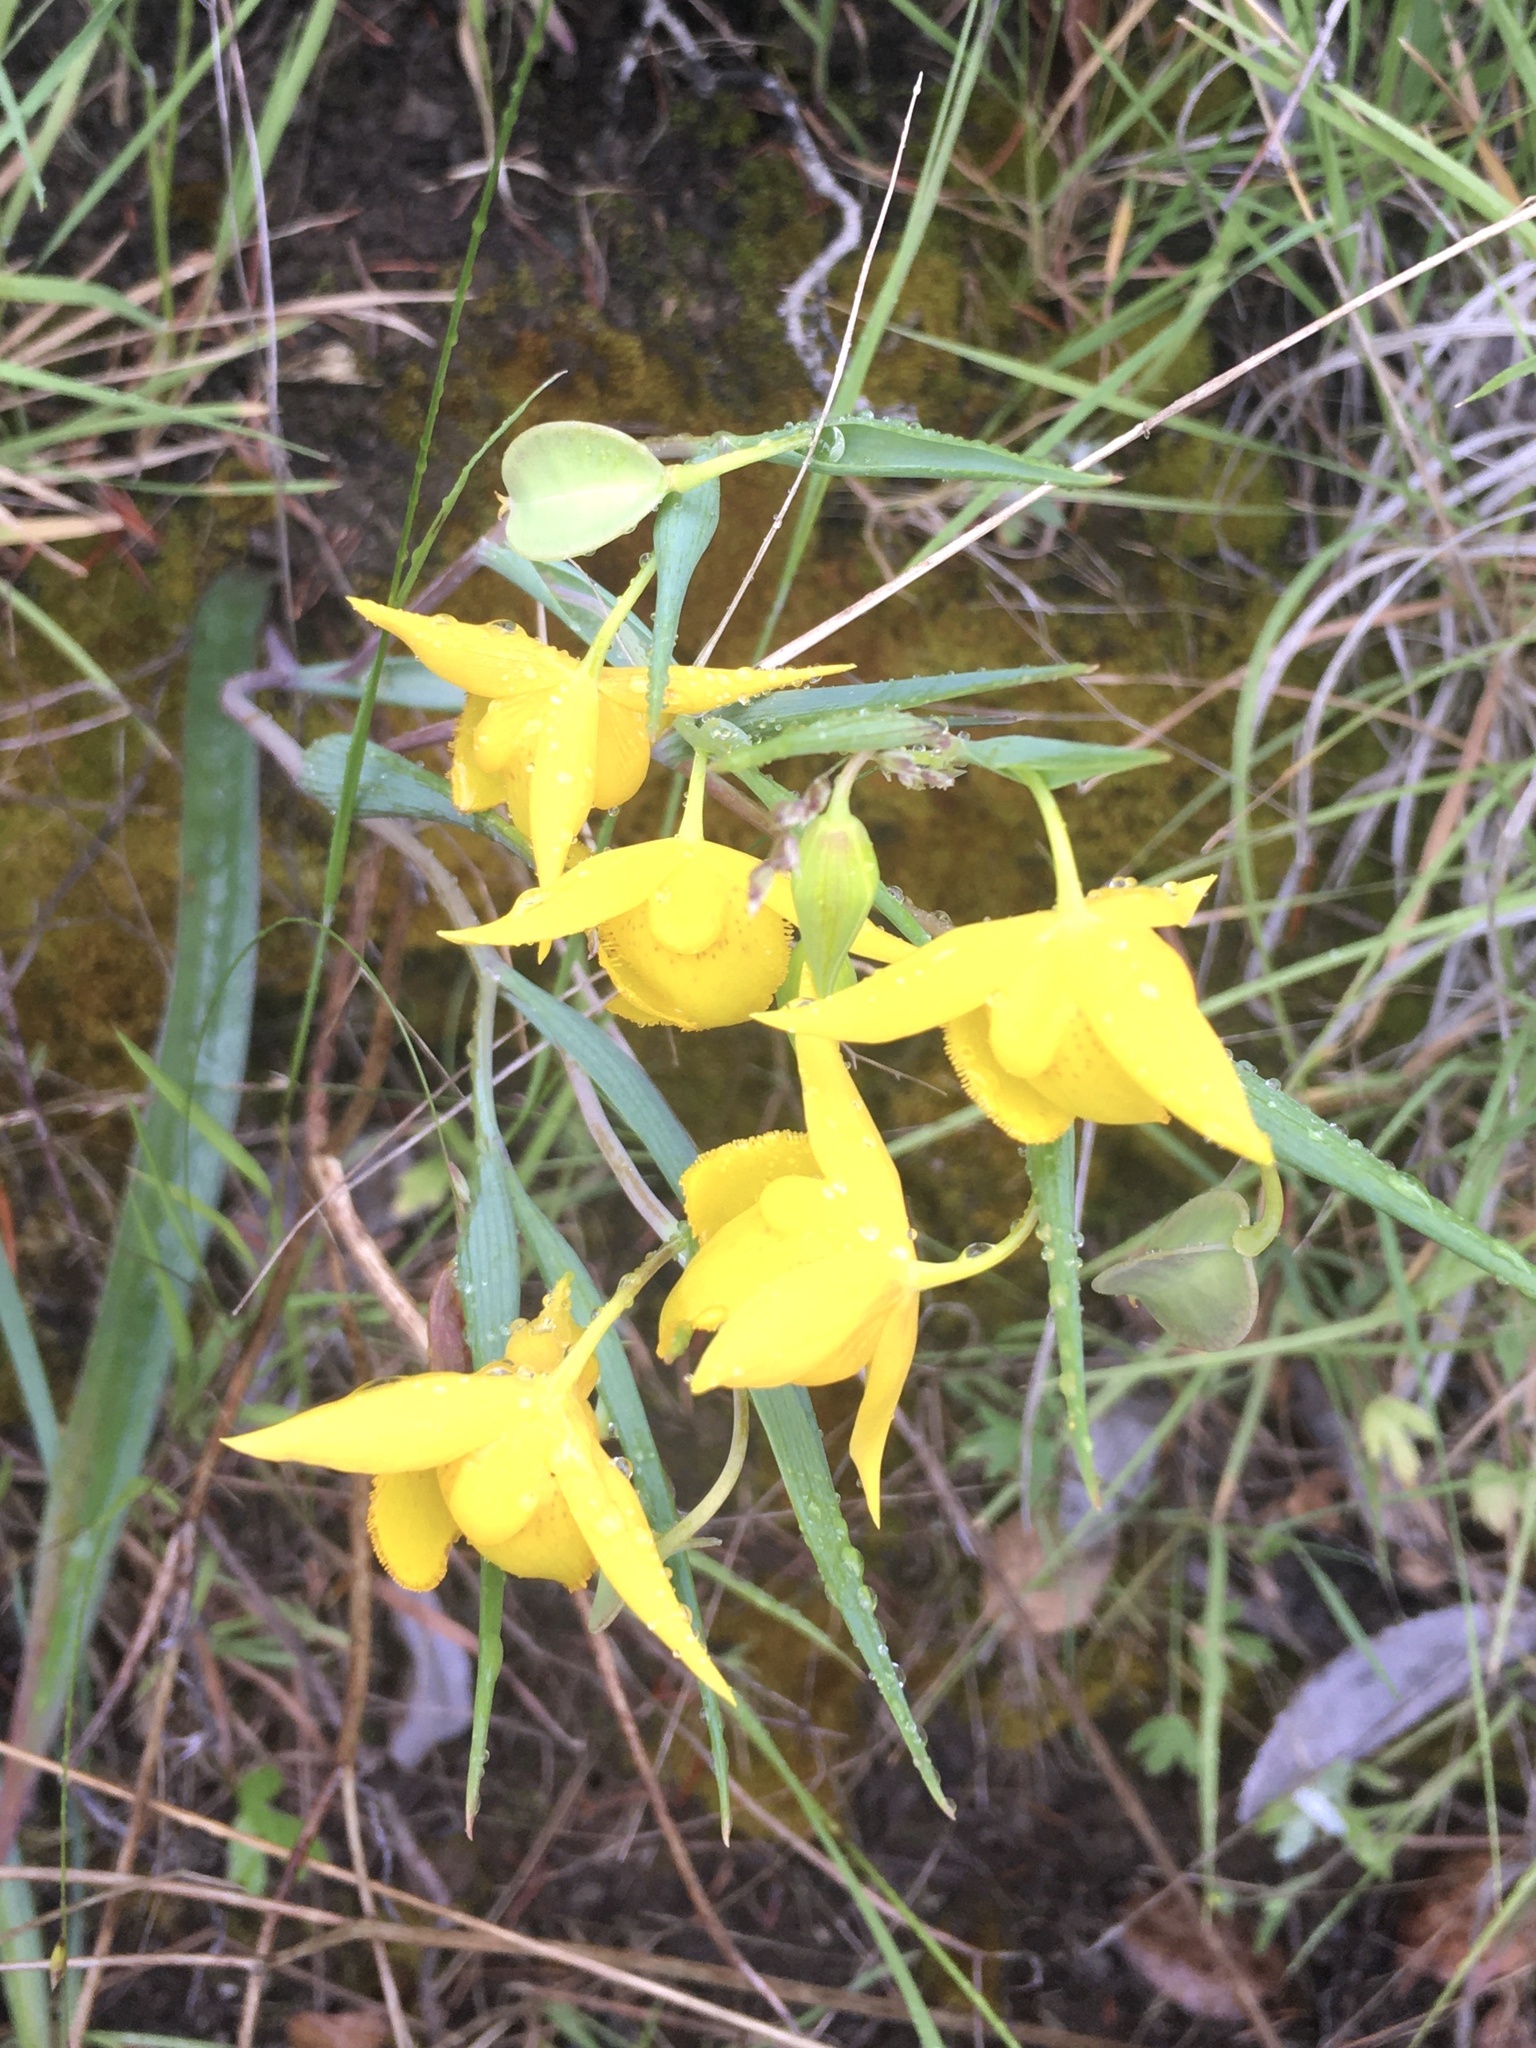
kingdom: Plantae
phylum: Tracheophyta
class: Liliopsida
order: Liliales
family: Liliaceae
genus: Calochortus
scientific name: Calochortus amabilis
